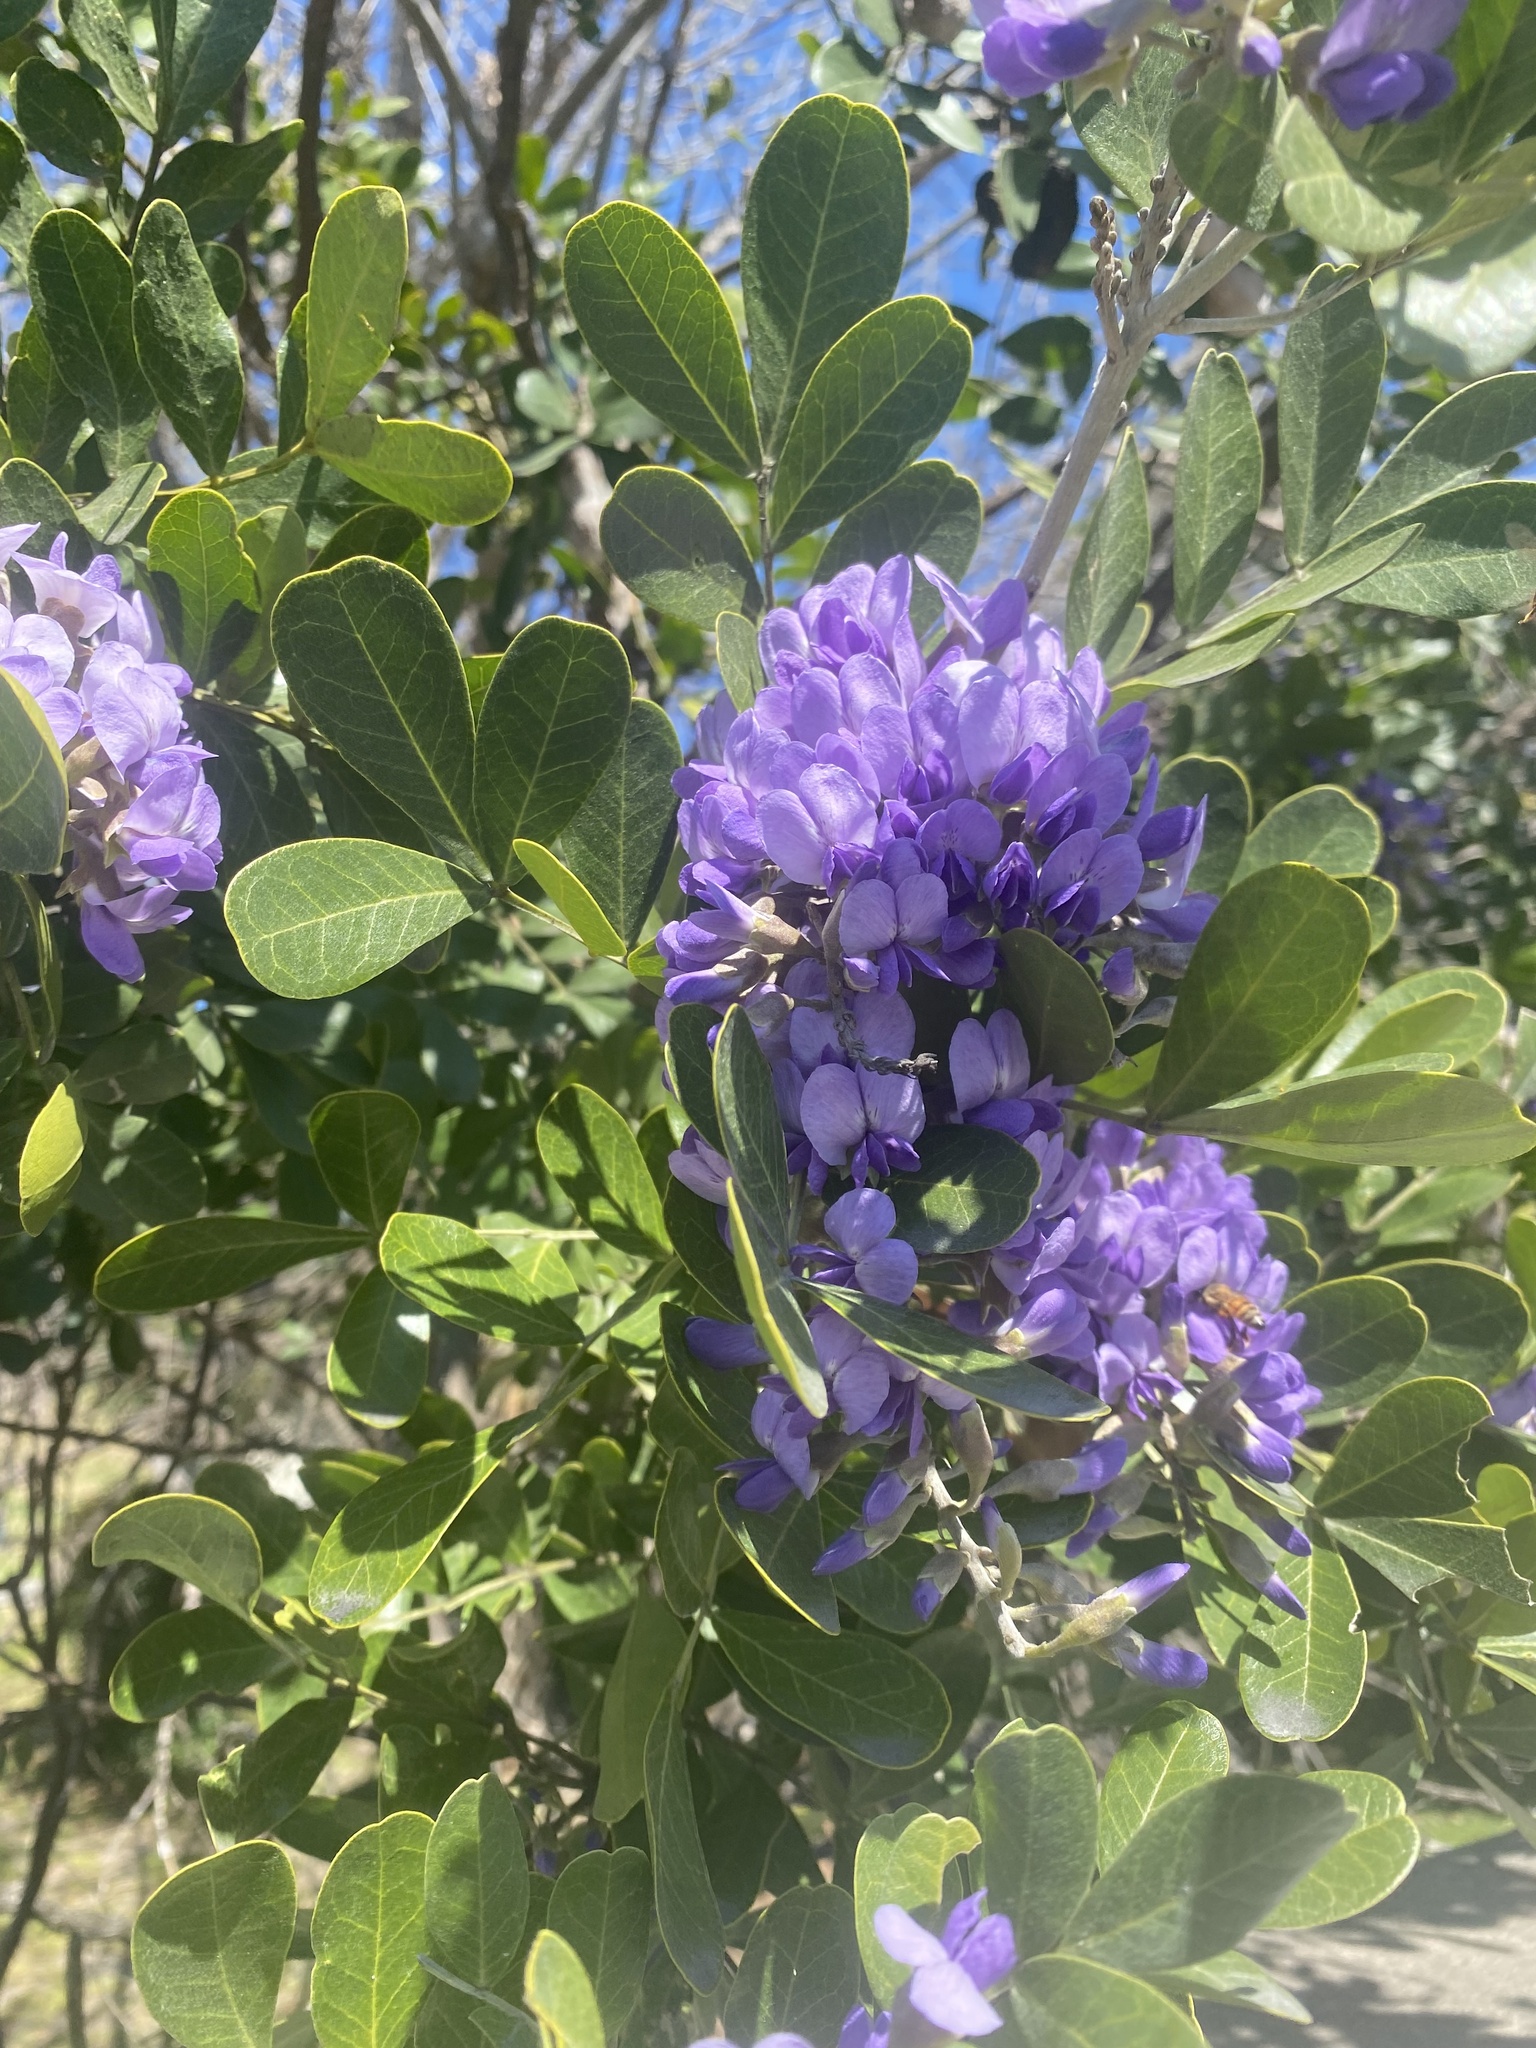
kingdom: Plantae
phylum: Tracheophyta
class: Magnoliopsida
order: Fabales
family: Fabaceae
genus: Dermatophyllum
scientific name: Dermatophyllum secundiflorum
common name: Texas-mountain-laurel
